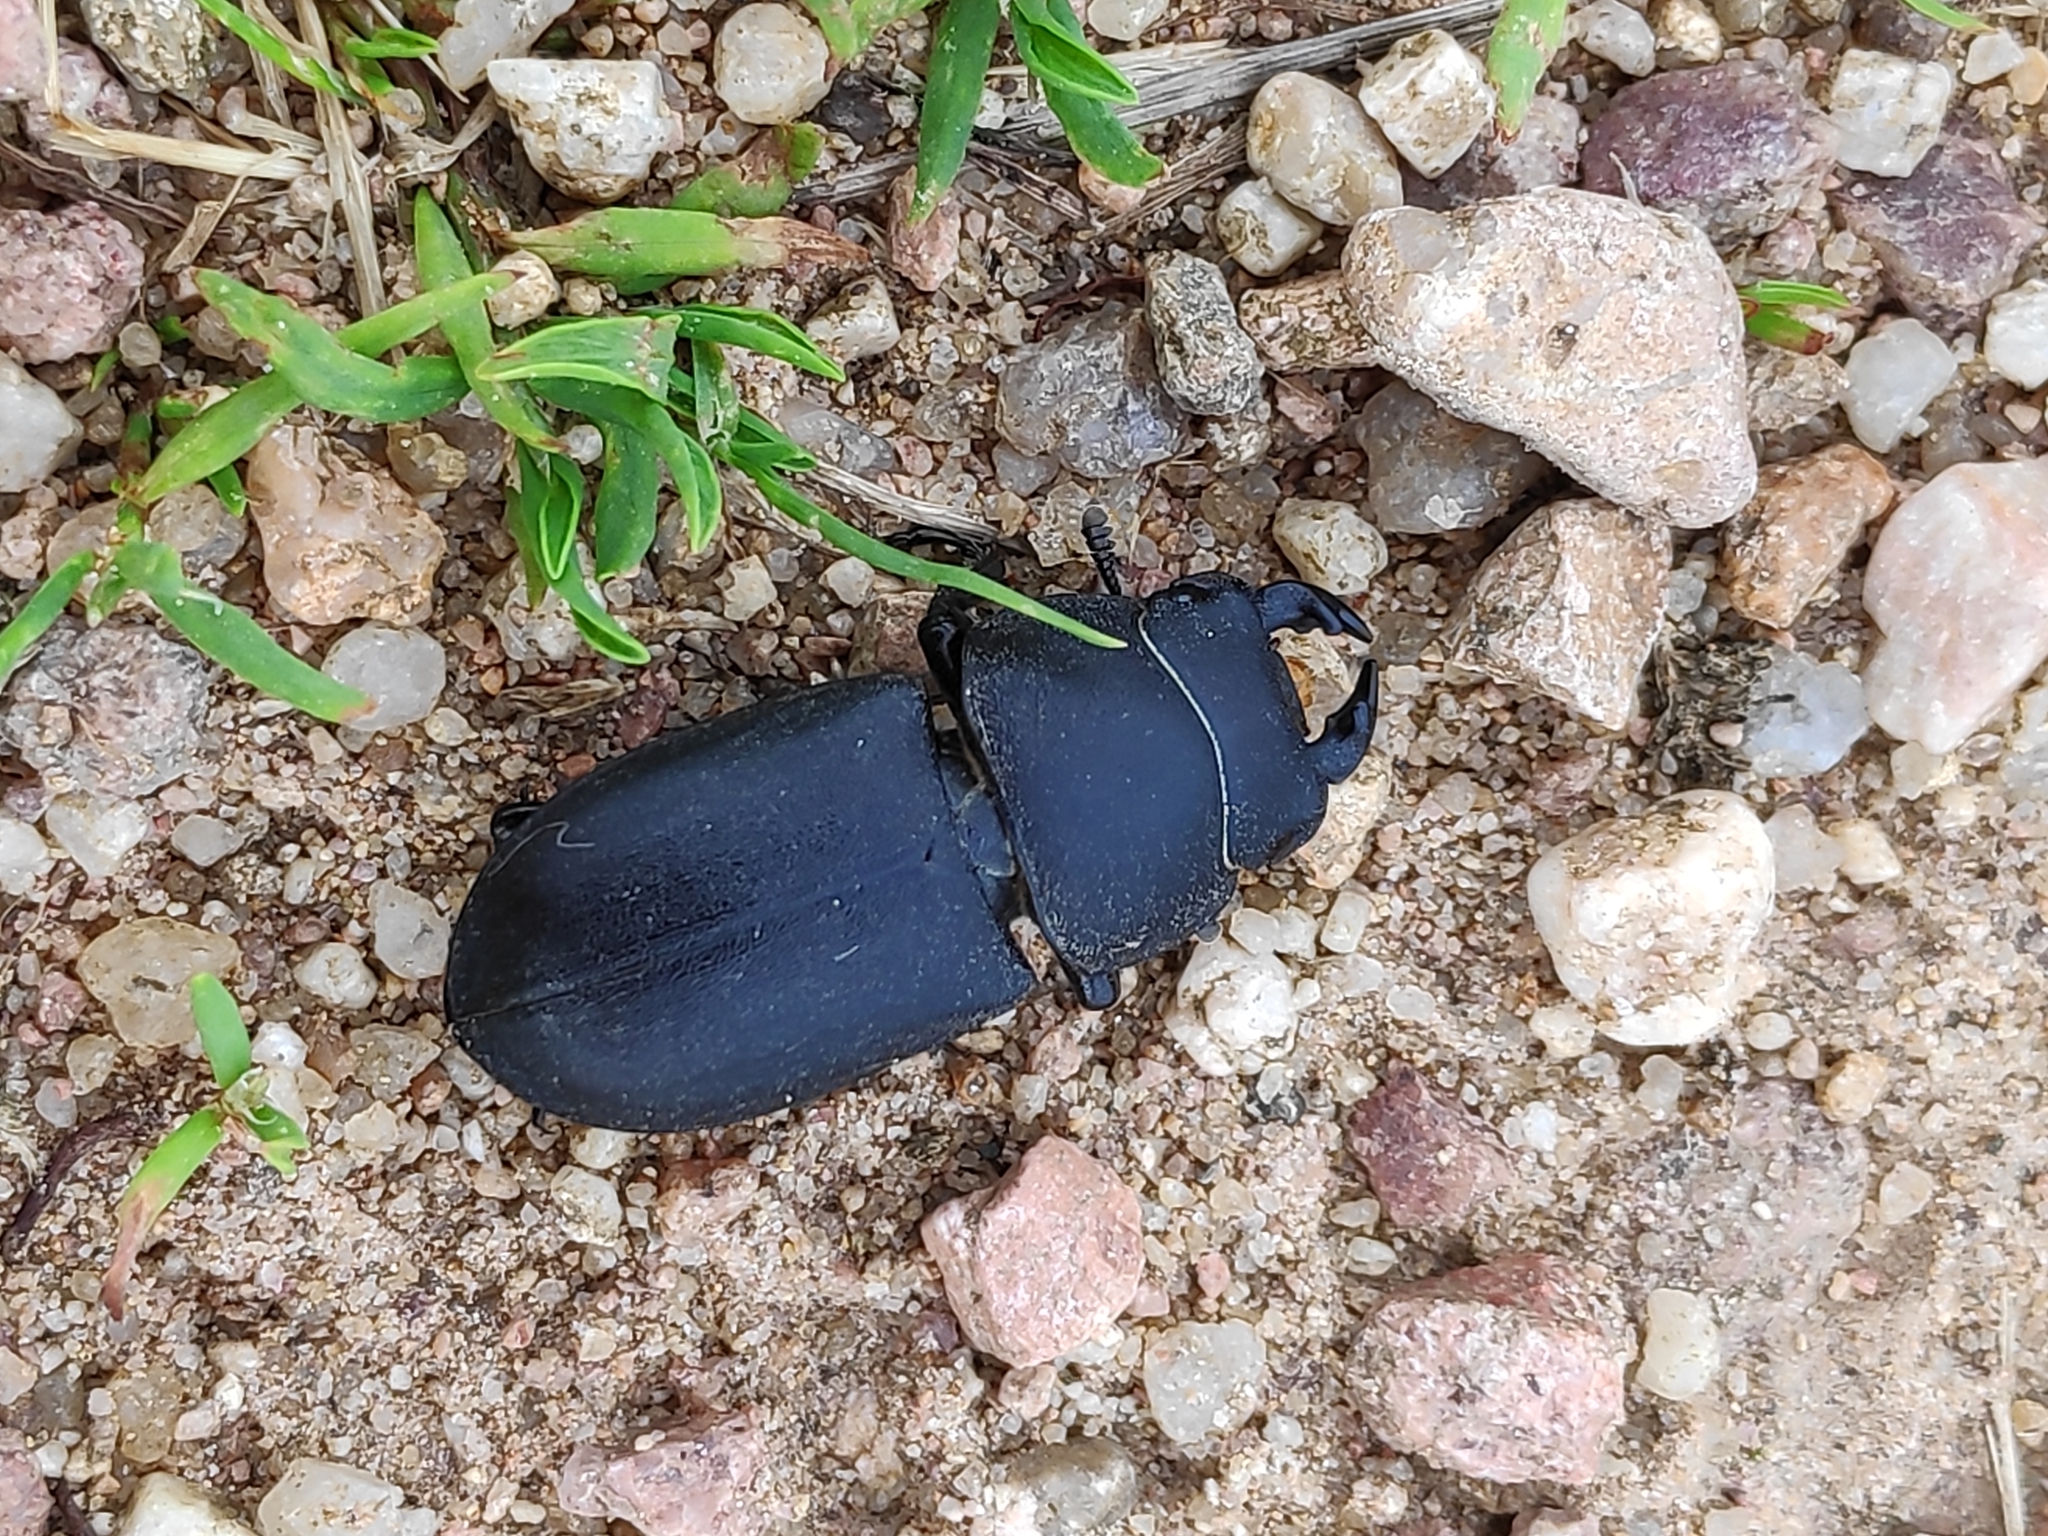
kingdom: Animalia
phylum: Arthropoda
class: Insecta
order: Coleoptera
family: Lucanidae
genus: Dorcus
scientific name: Dorcus parallelipipedus
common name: Lesser stag beetle
